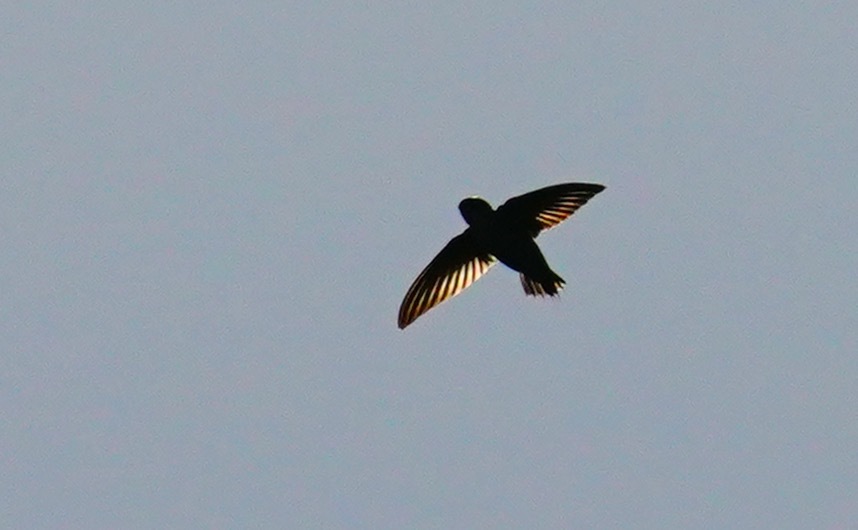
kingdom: Animalia
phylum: Chordata
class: Aves
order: Apodiformes
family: Apodidae
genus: Chaetura
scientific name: Chaetura vauxi
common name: Vaux's swift
